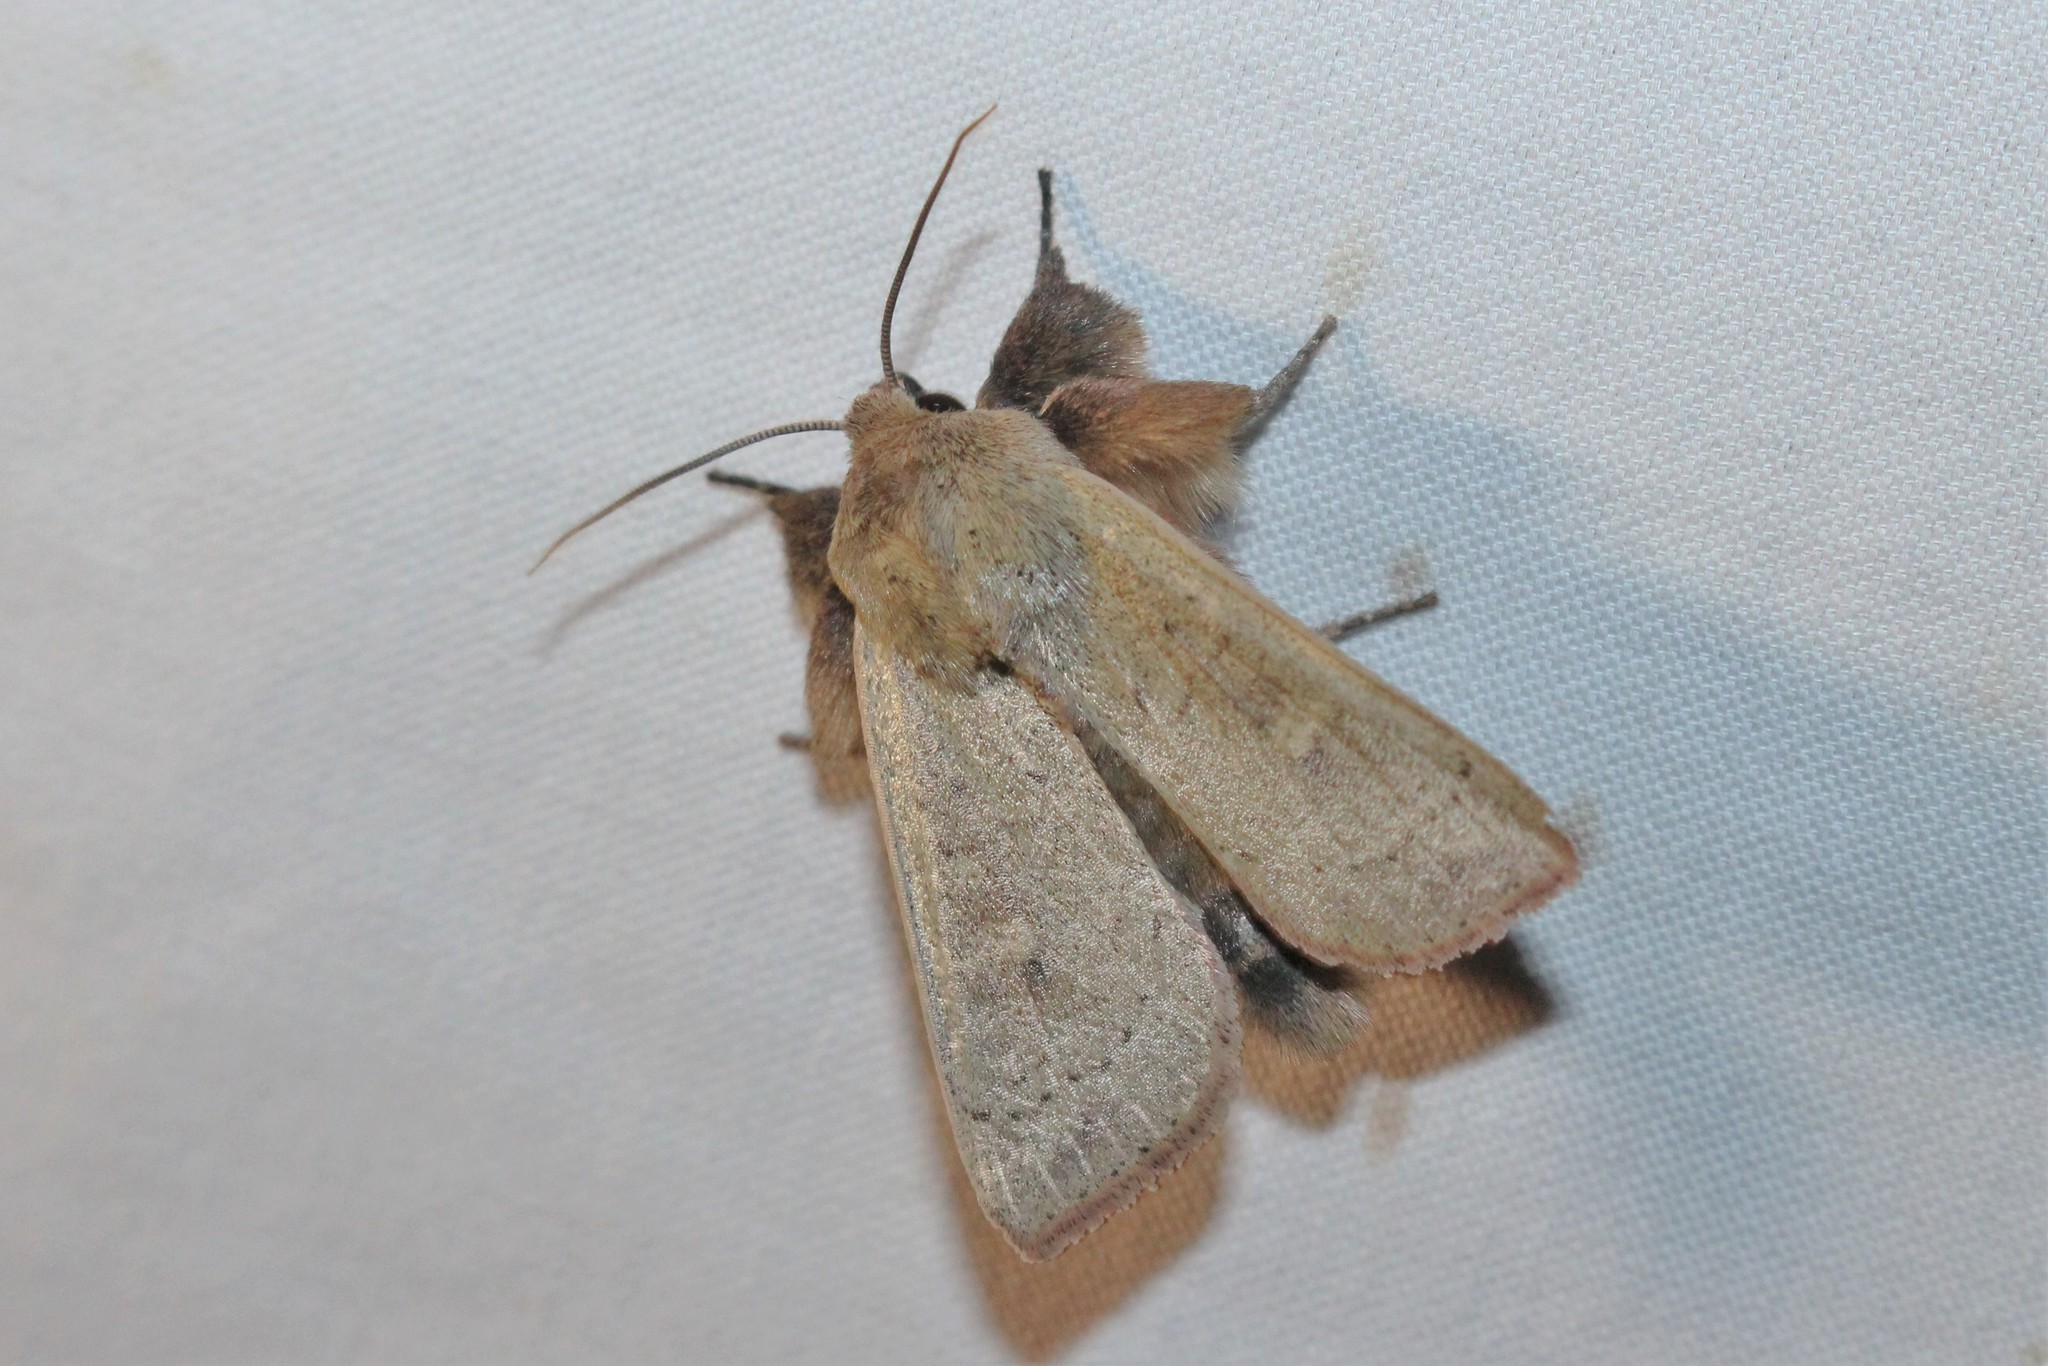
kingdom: Animalia
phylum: Arthropoda
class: Insecta
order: Lepidoptera
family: Noctuidae
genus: Leucania
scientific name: Leucania pseudargyria
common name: False wainscot
